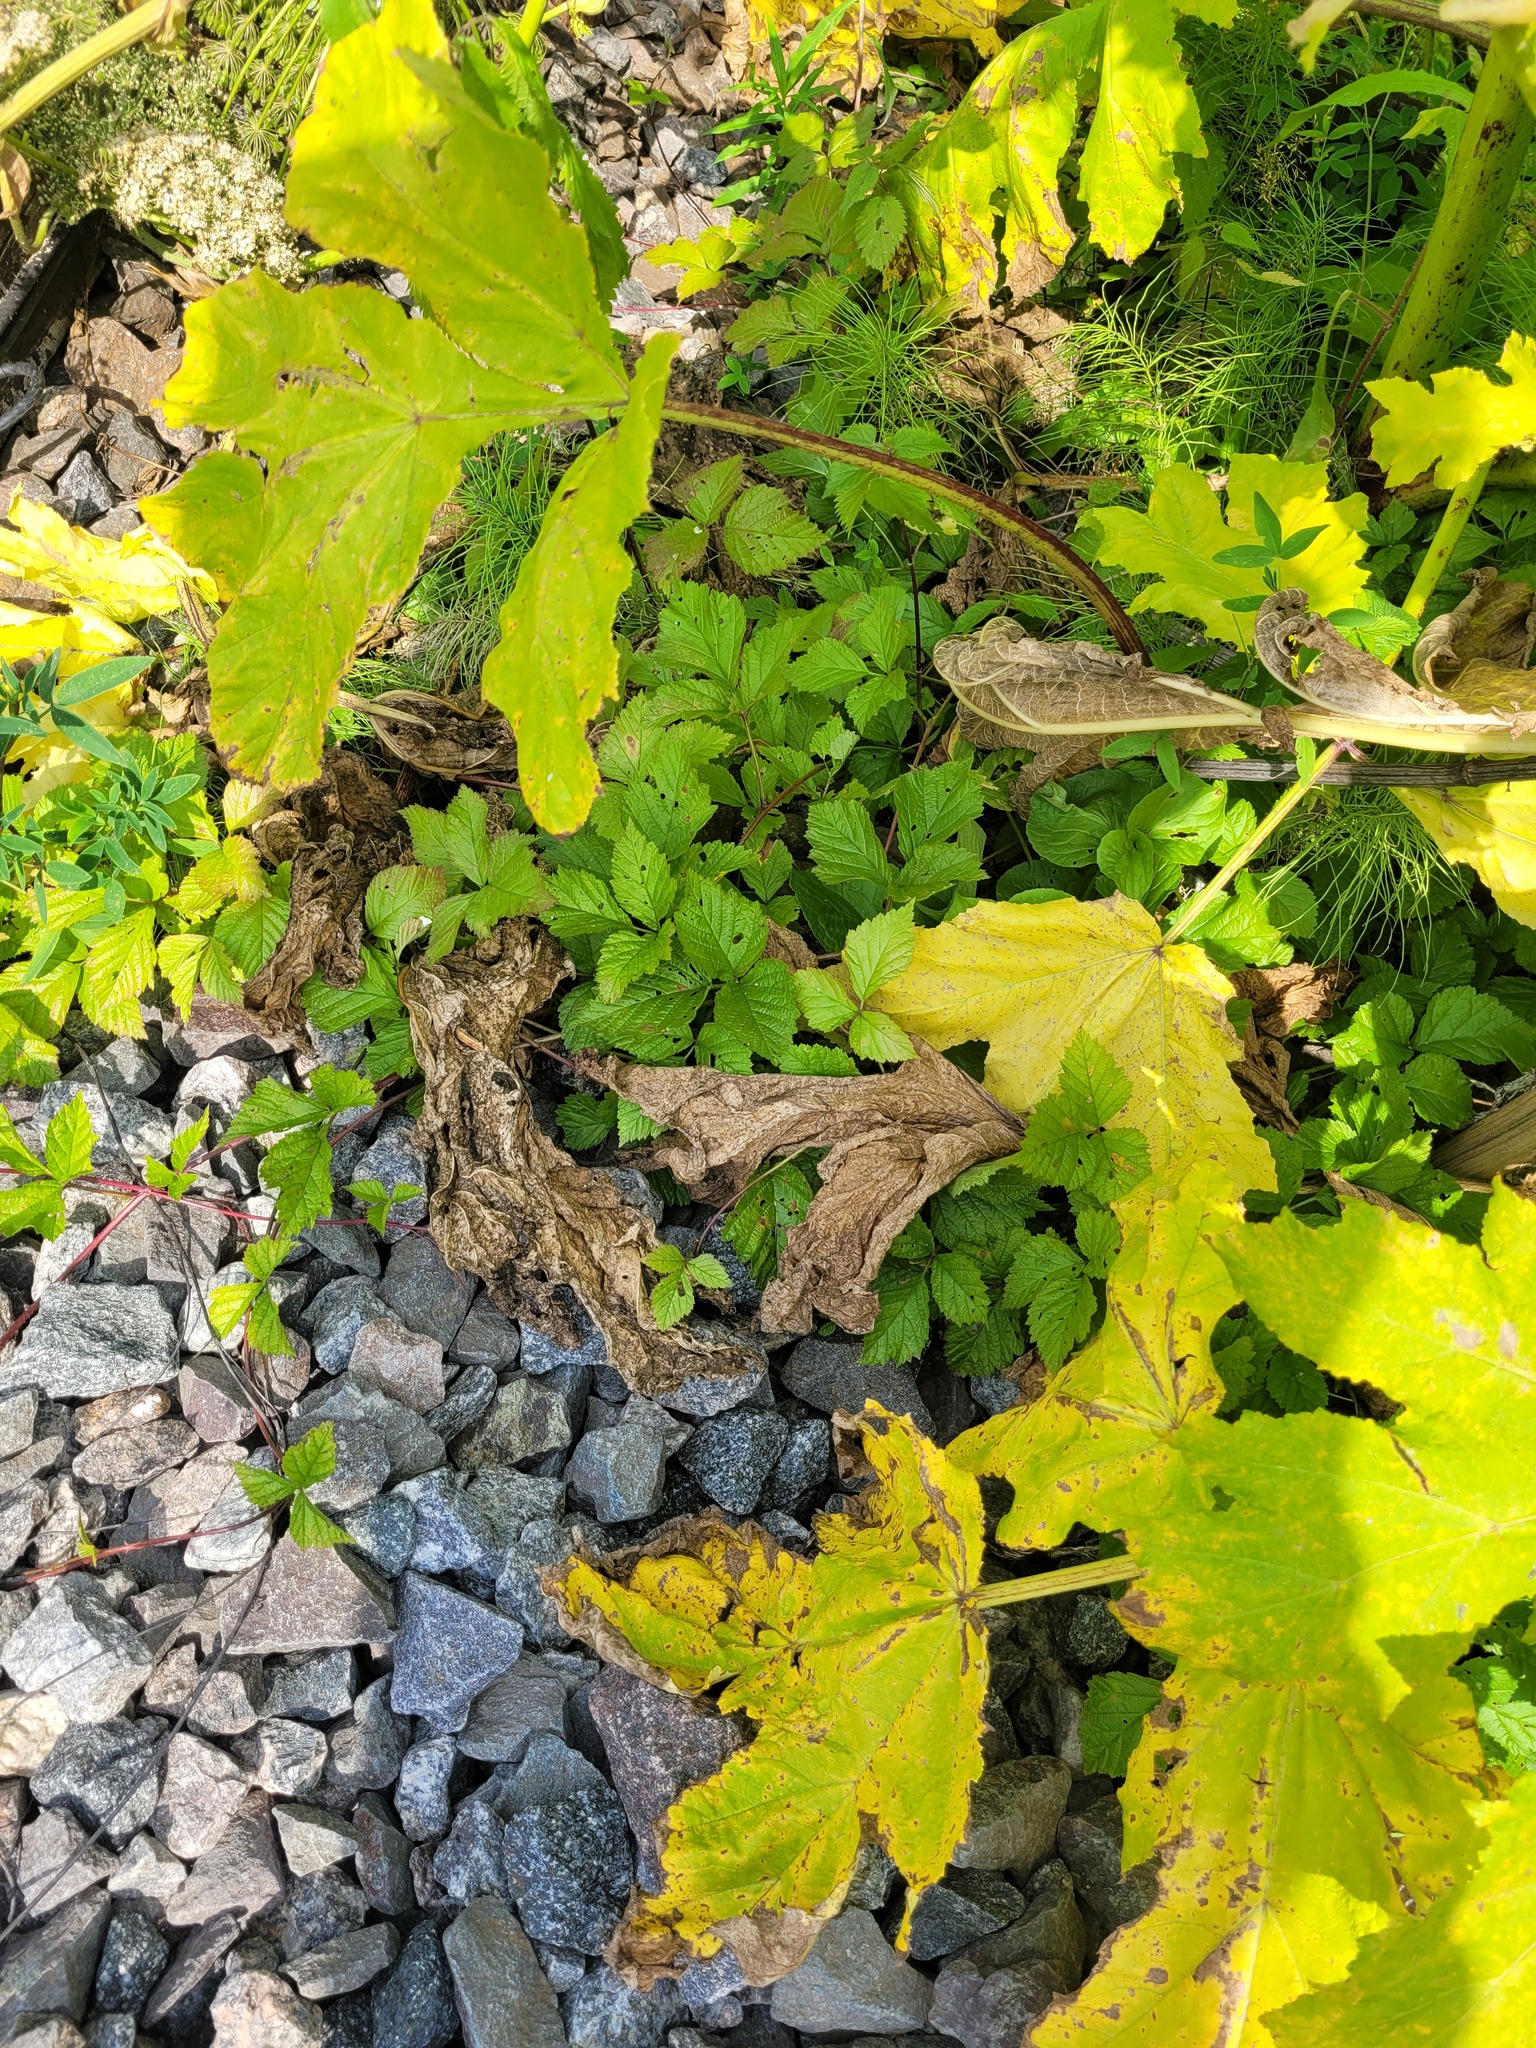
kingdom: Plantae
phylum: Tracheophyta
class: Magnoliopsida
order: Rosales
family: Rosaceae
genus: Rubus
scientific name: Rubus saxatilis
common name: Stone bramble
